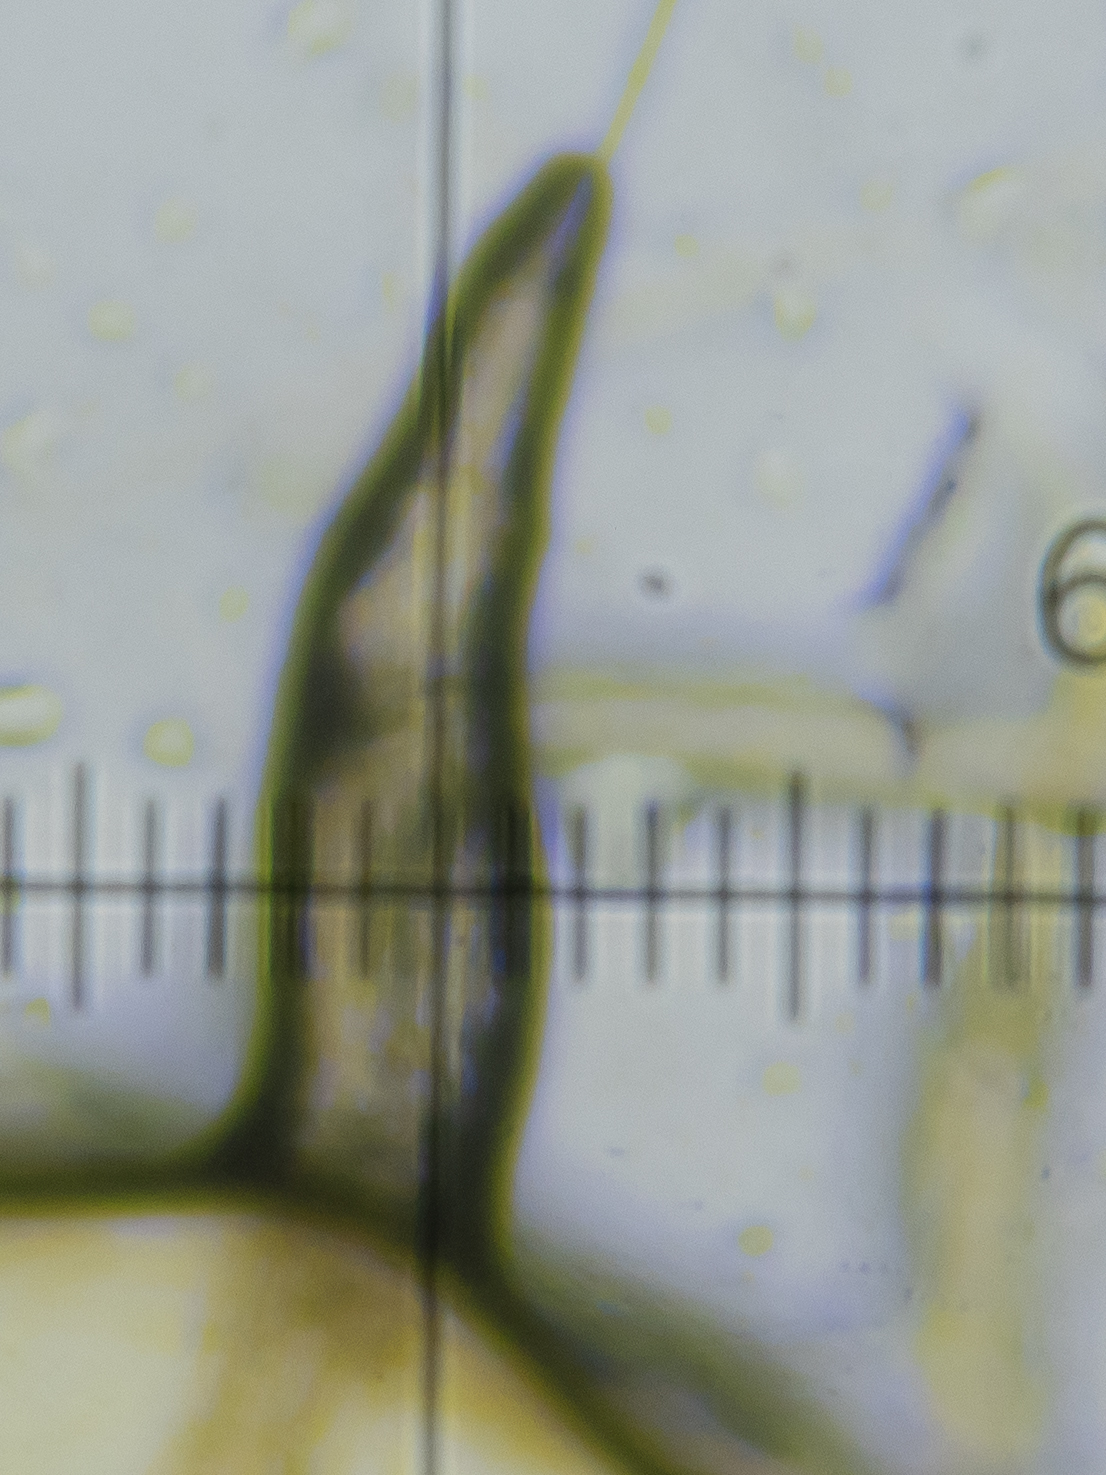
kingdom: Fungi
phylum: Basidiomycota
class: Agaricomycetes
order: Agaricales
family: Tubariaceae
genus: Flammulaster
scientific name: Flammulaster carpophilus
